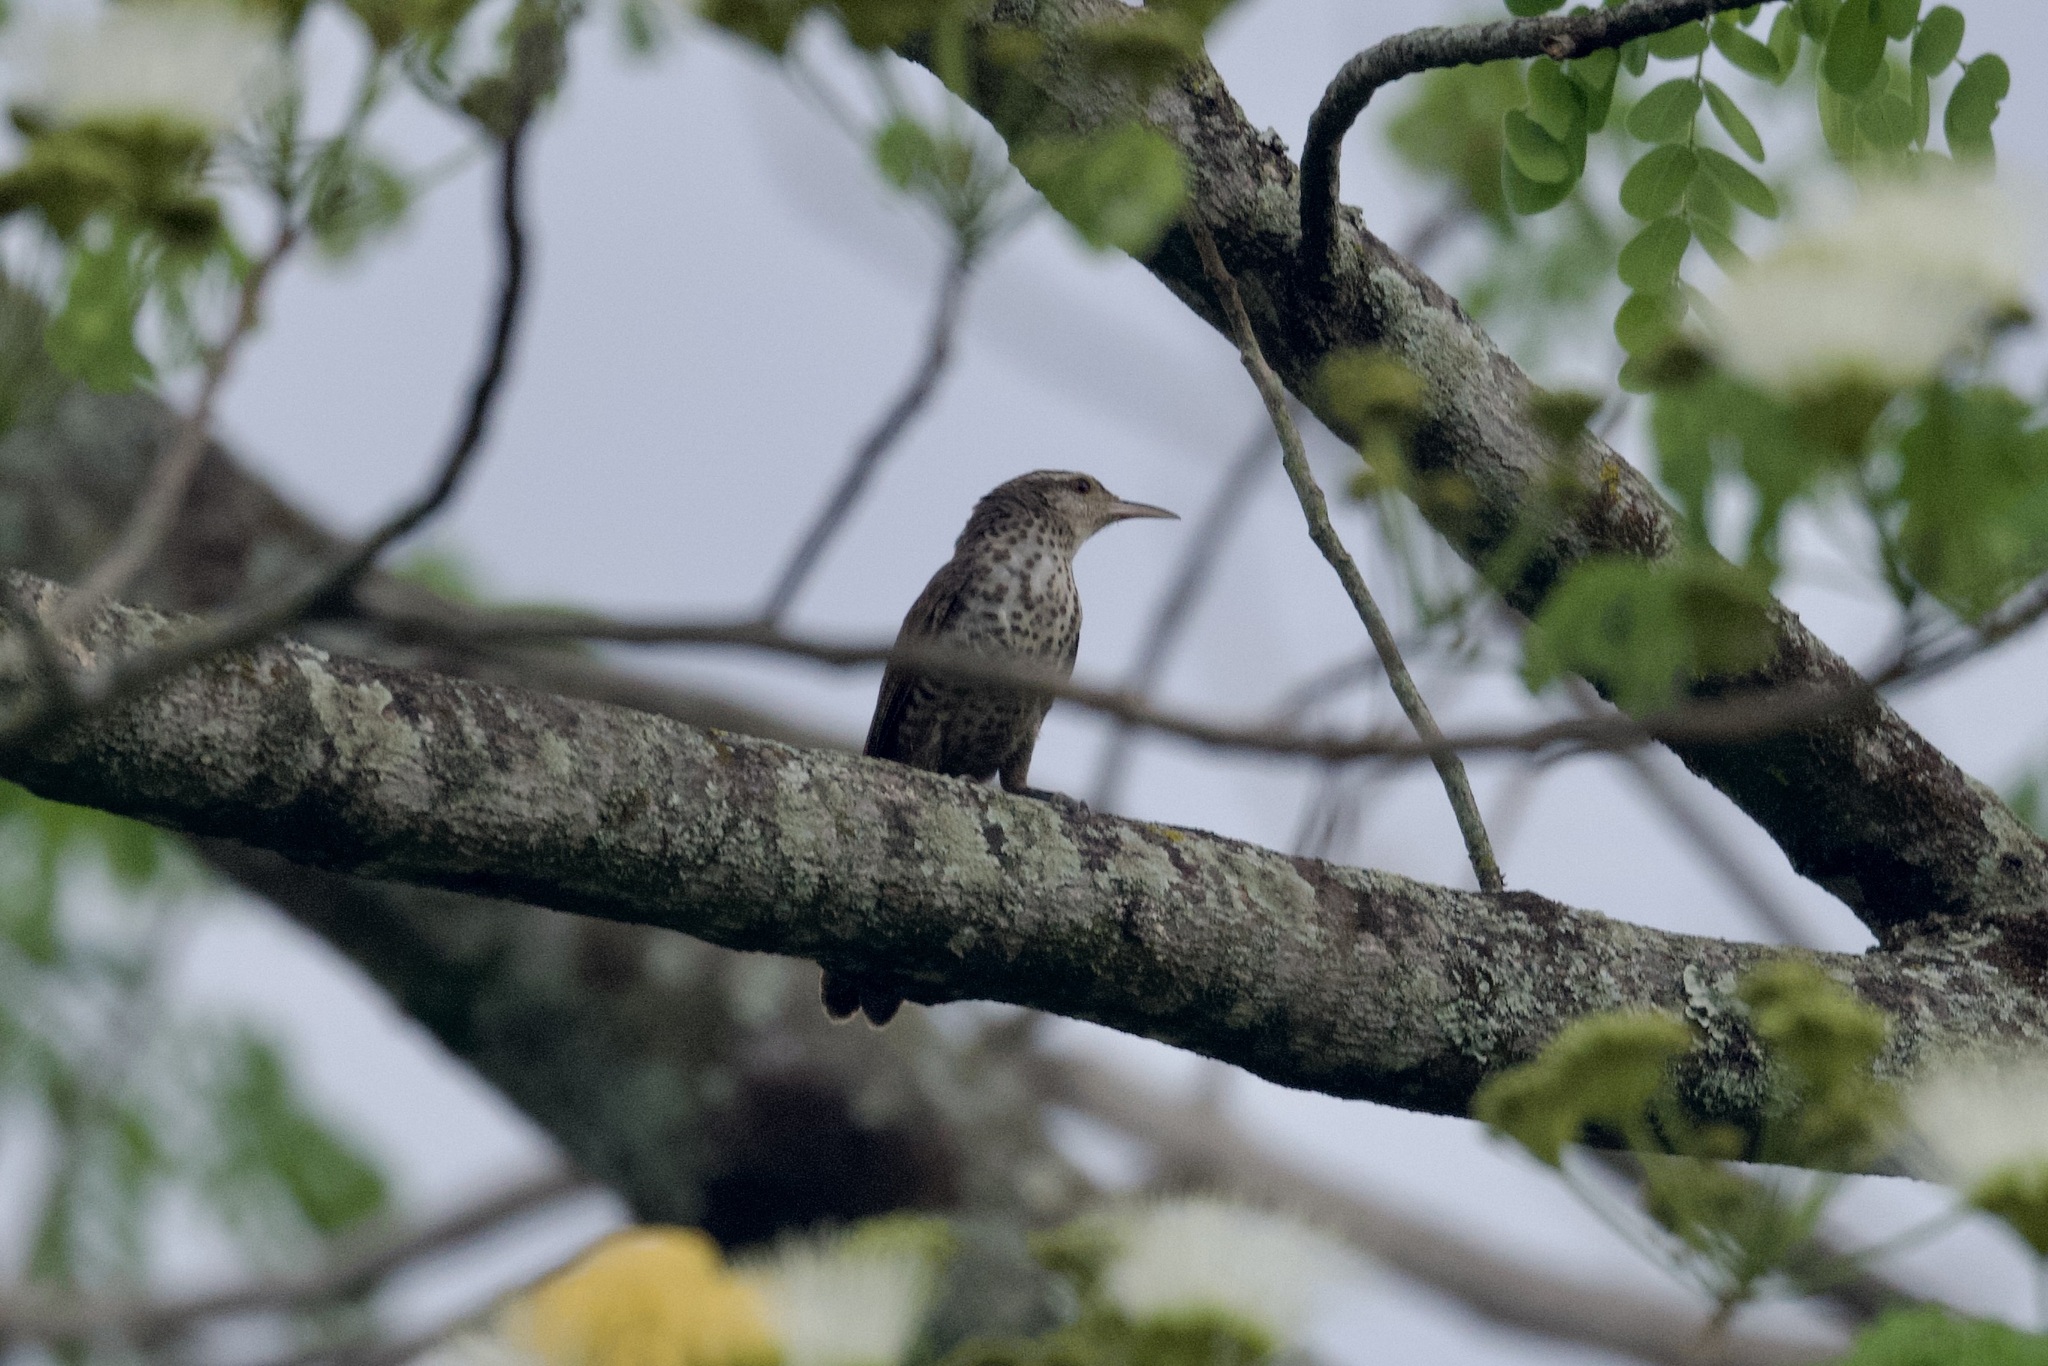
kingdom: Animalia
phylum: Chordata
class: Aves
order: Passeriformes
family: Troglodytidae
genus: Campylorhynchus
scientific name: Campylorhynchus turdinus
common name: Thrush-like wren
